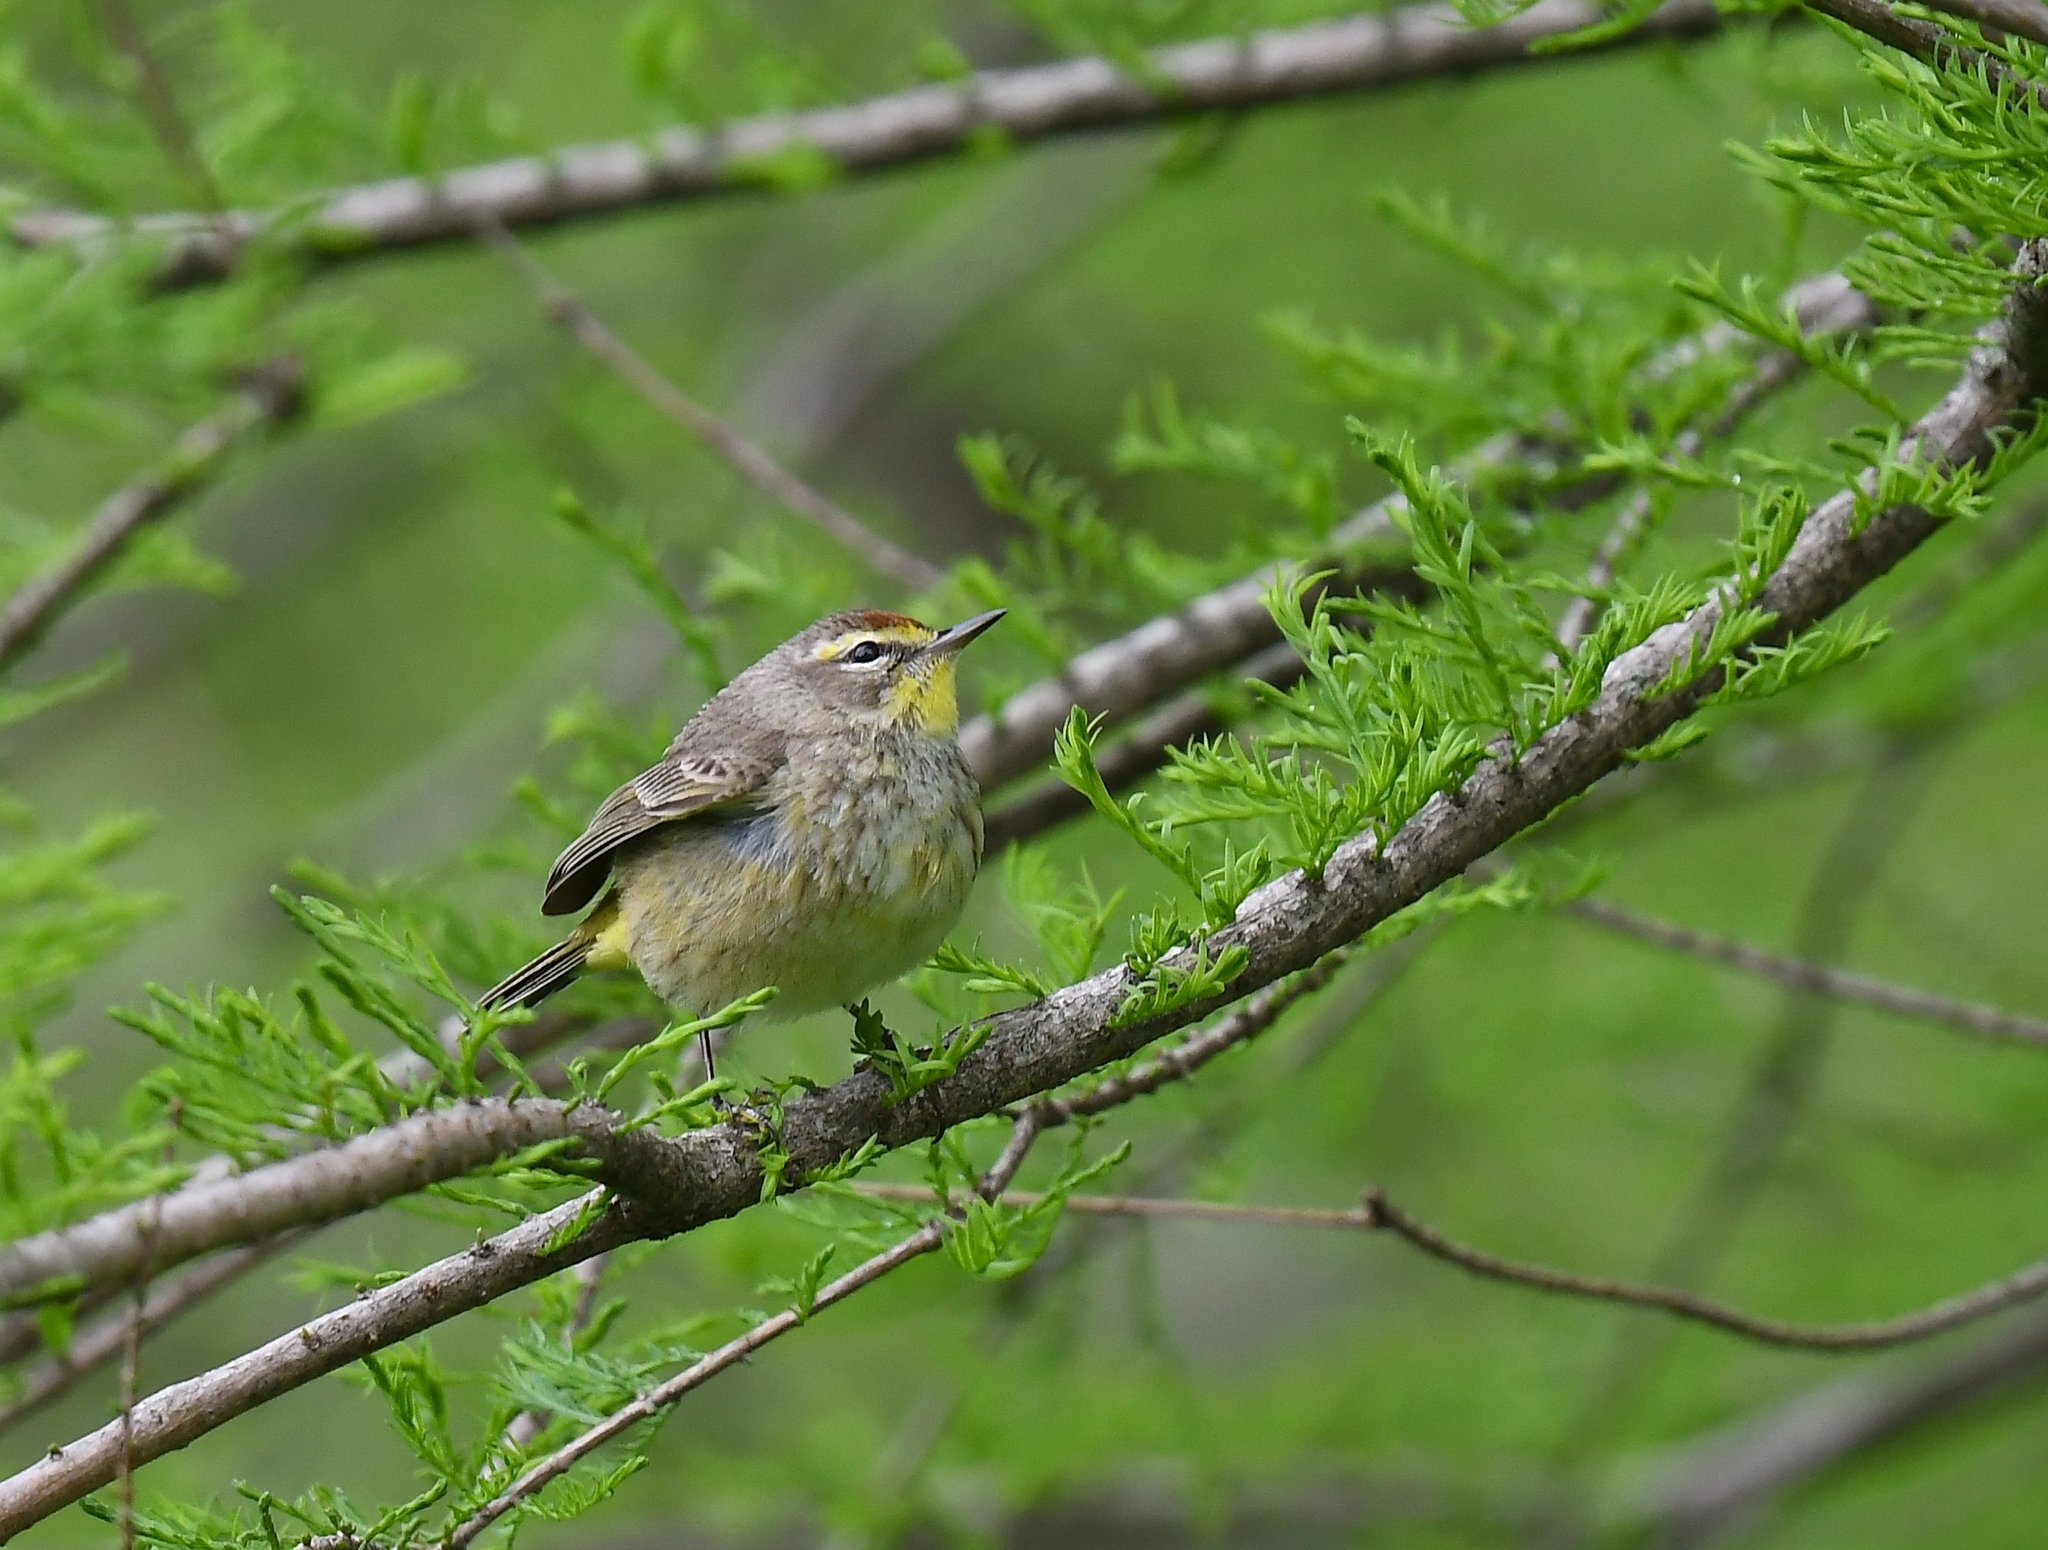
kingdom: Animalia
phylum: Chordata
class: Aves
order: Passeriformes
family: Parulidae
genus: Setophaga
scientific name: Setophaga palmarum
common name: Palm warbler
